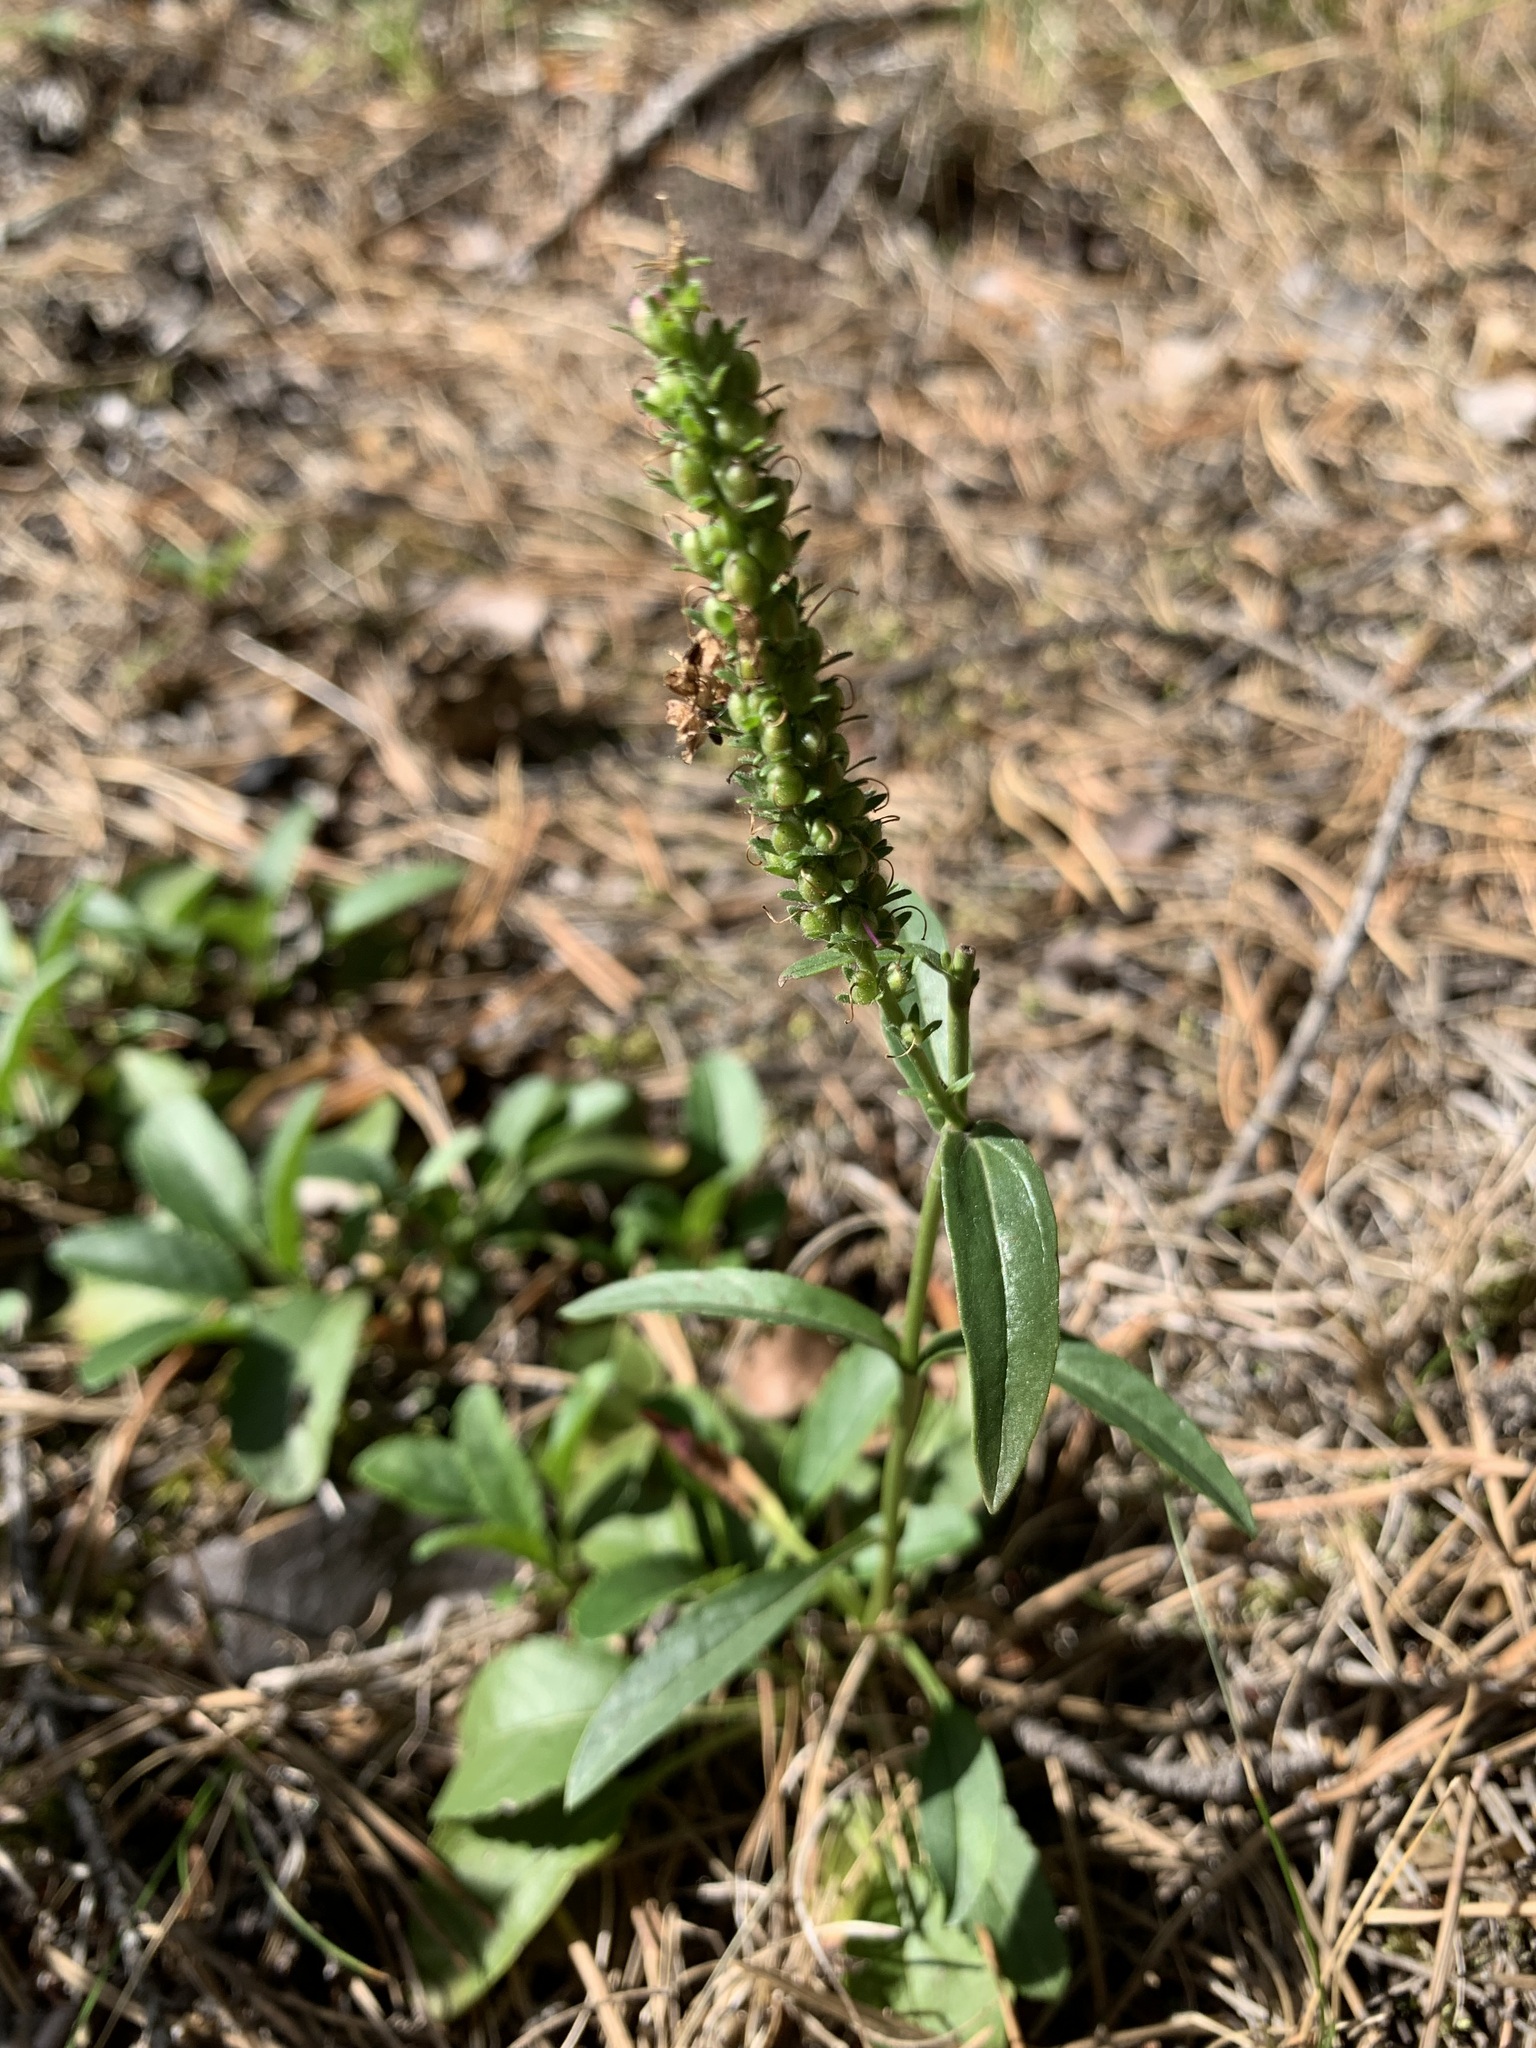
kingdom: Plantae
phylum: Tracheophyta
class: Magnoliopsida
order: Lamiales
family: Plantaginaceae
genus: Veronica
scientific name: Veronica spicata
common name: Spiked speedwell
